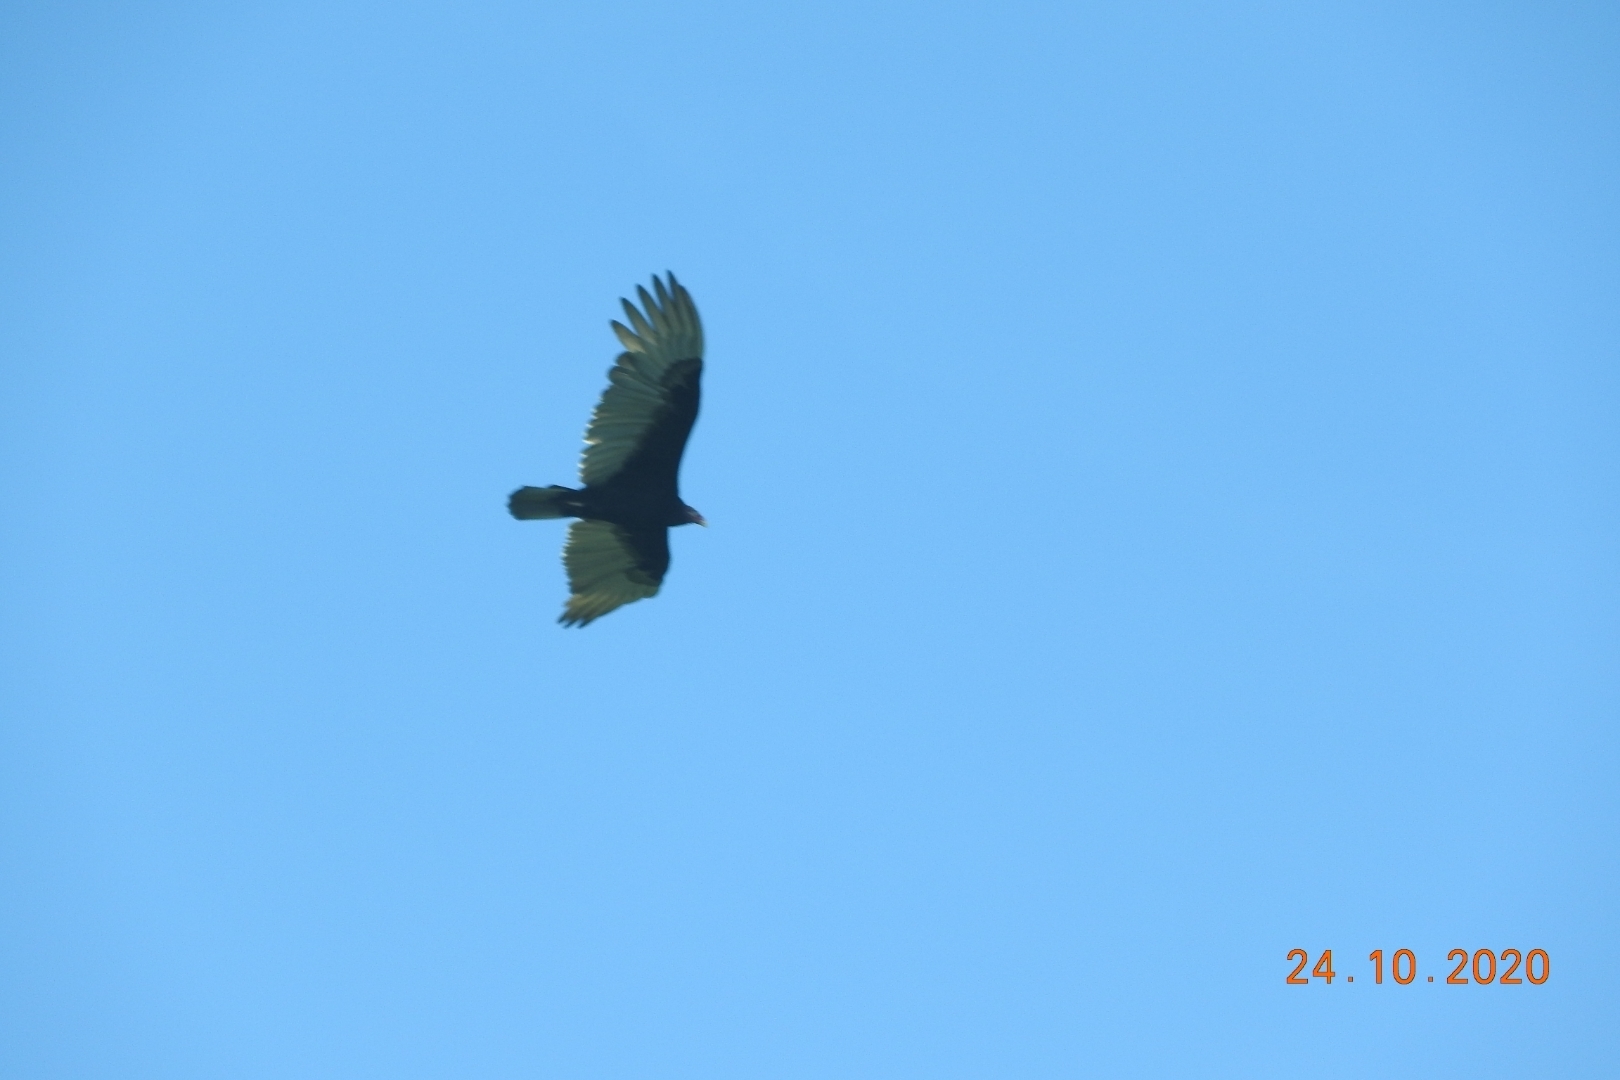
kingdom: Animalia
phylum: Chordata
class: Aves
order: Accipitriformes
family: Cathartidae
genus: Cathartes
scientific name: Cathartes aura
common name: Turkey vulture
